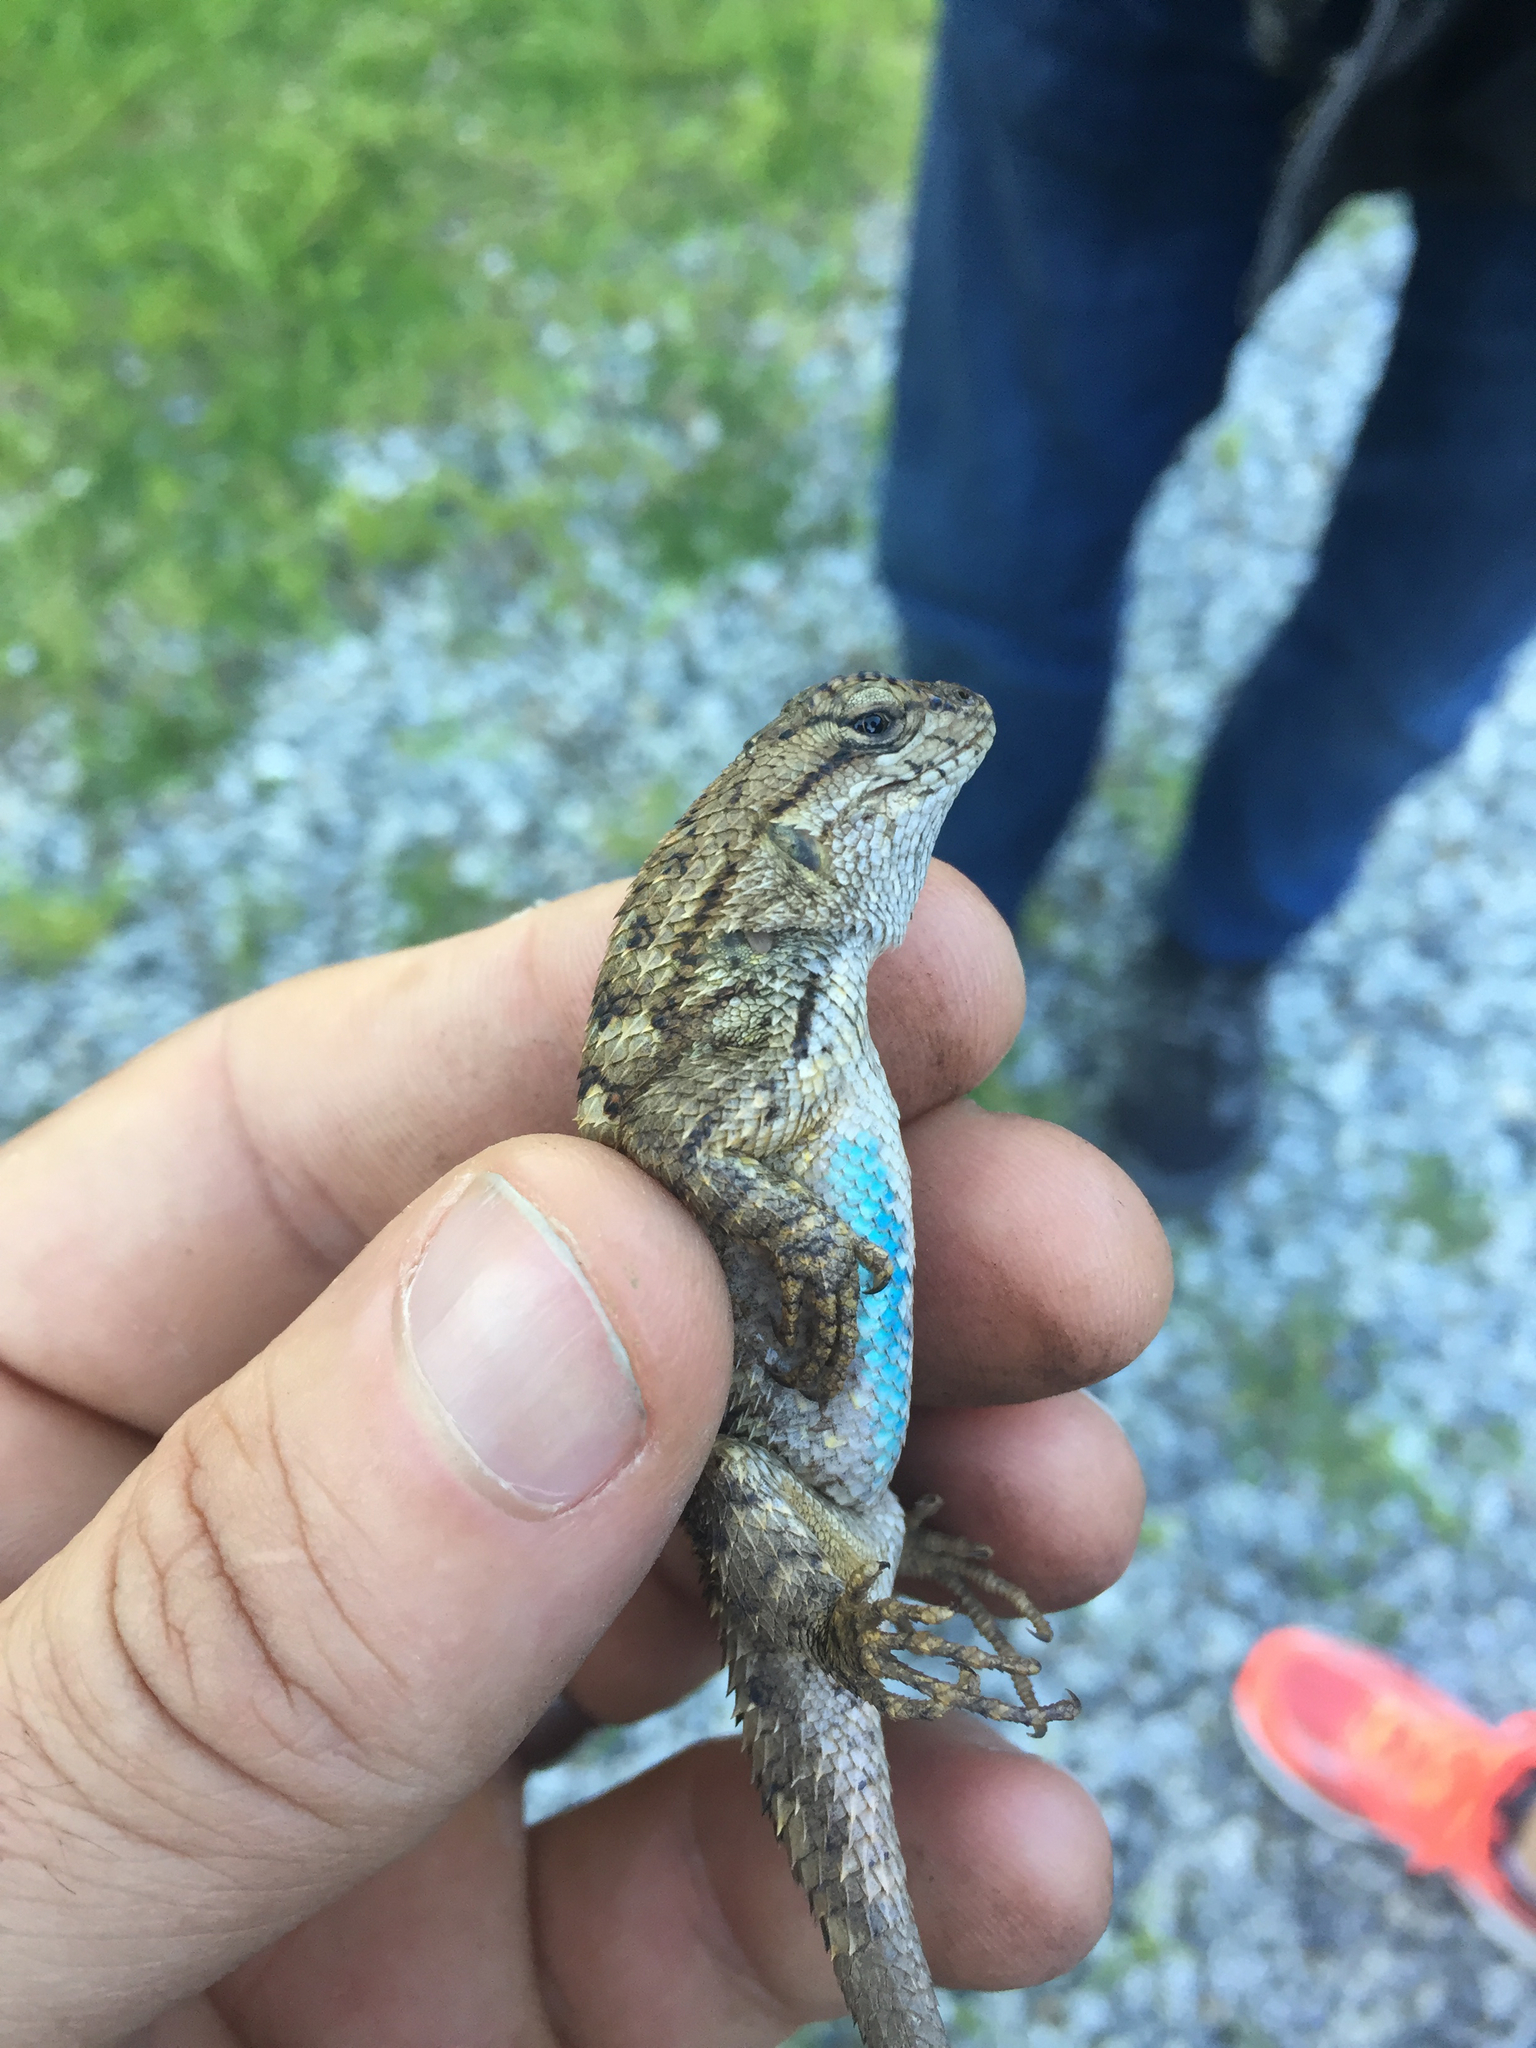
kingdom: Animalia
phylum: Chordata
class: Squamata
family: Phrynosomatidae
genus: Sceloporus
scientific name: Sceloporus occidentalis
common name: Western fence lizard
